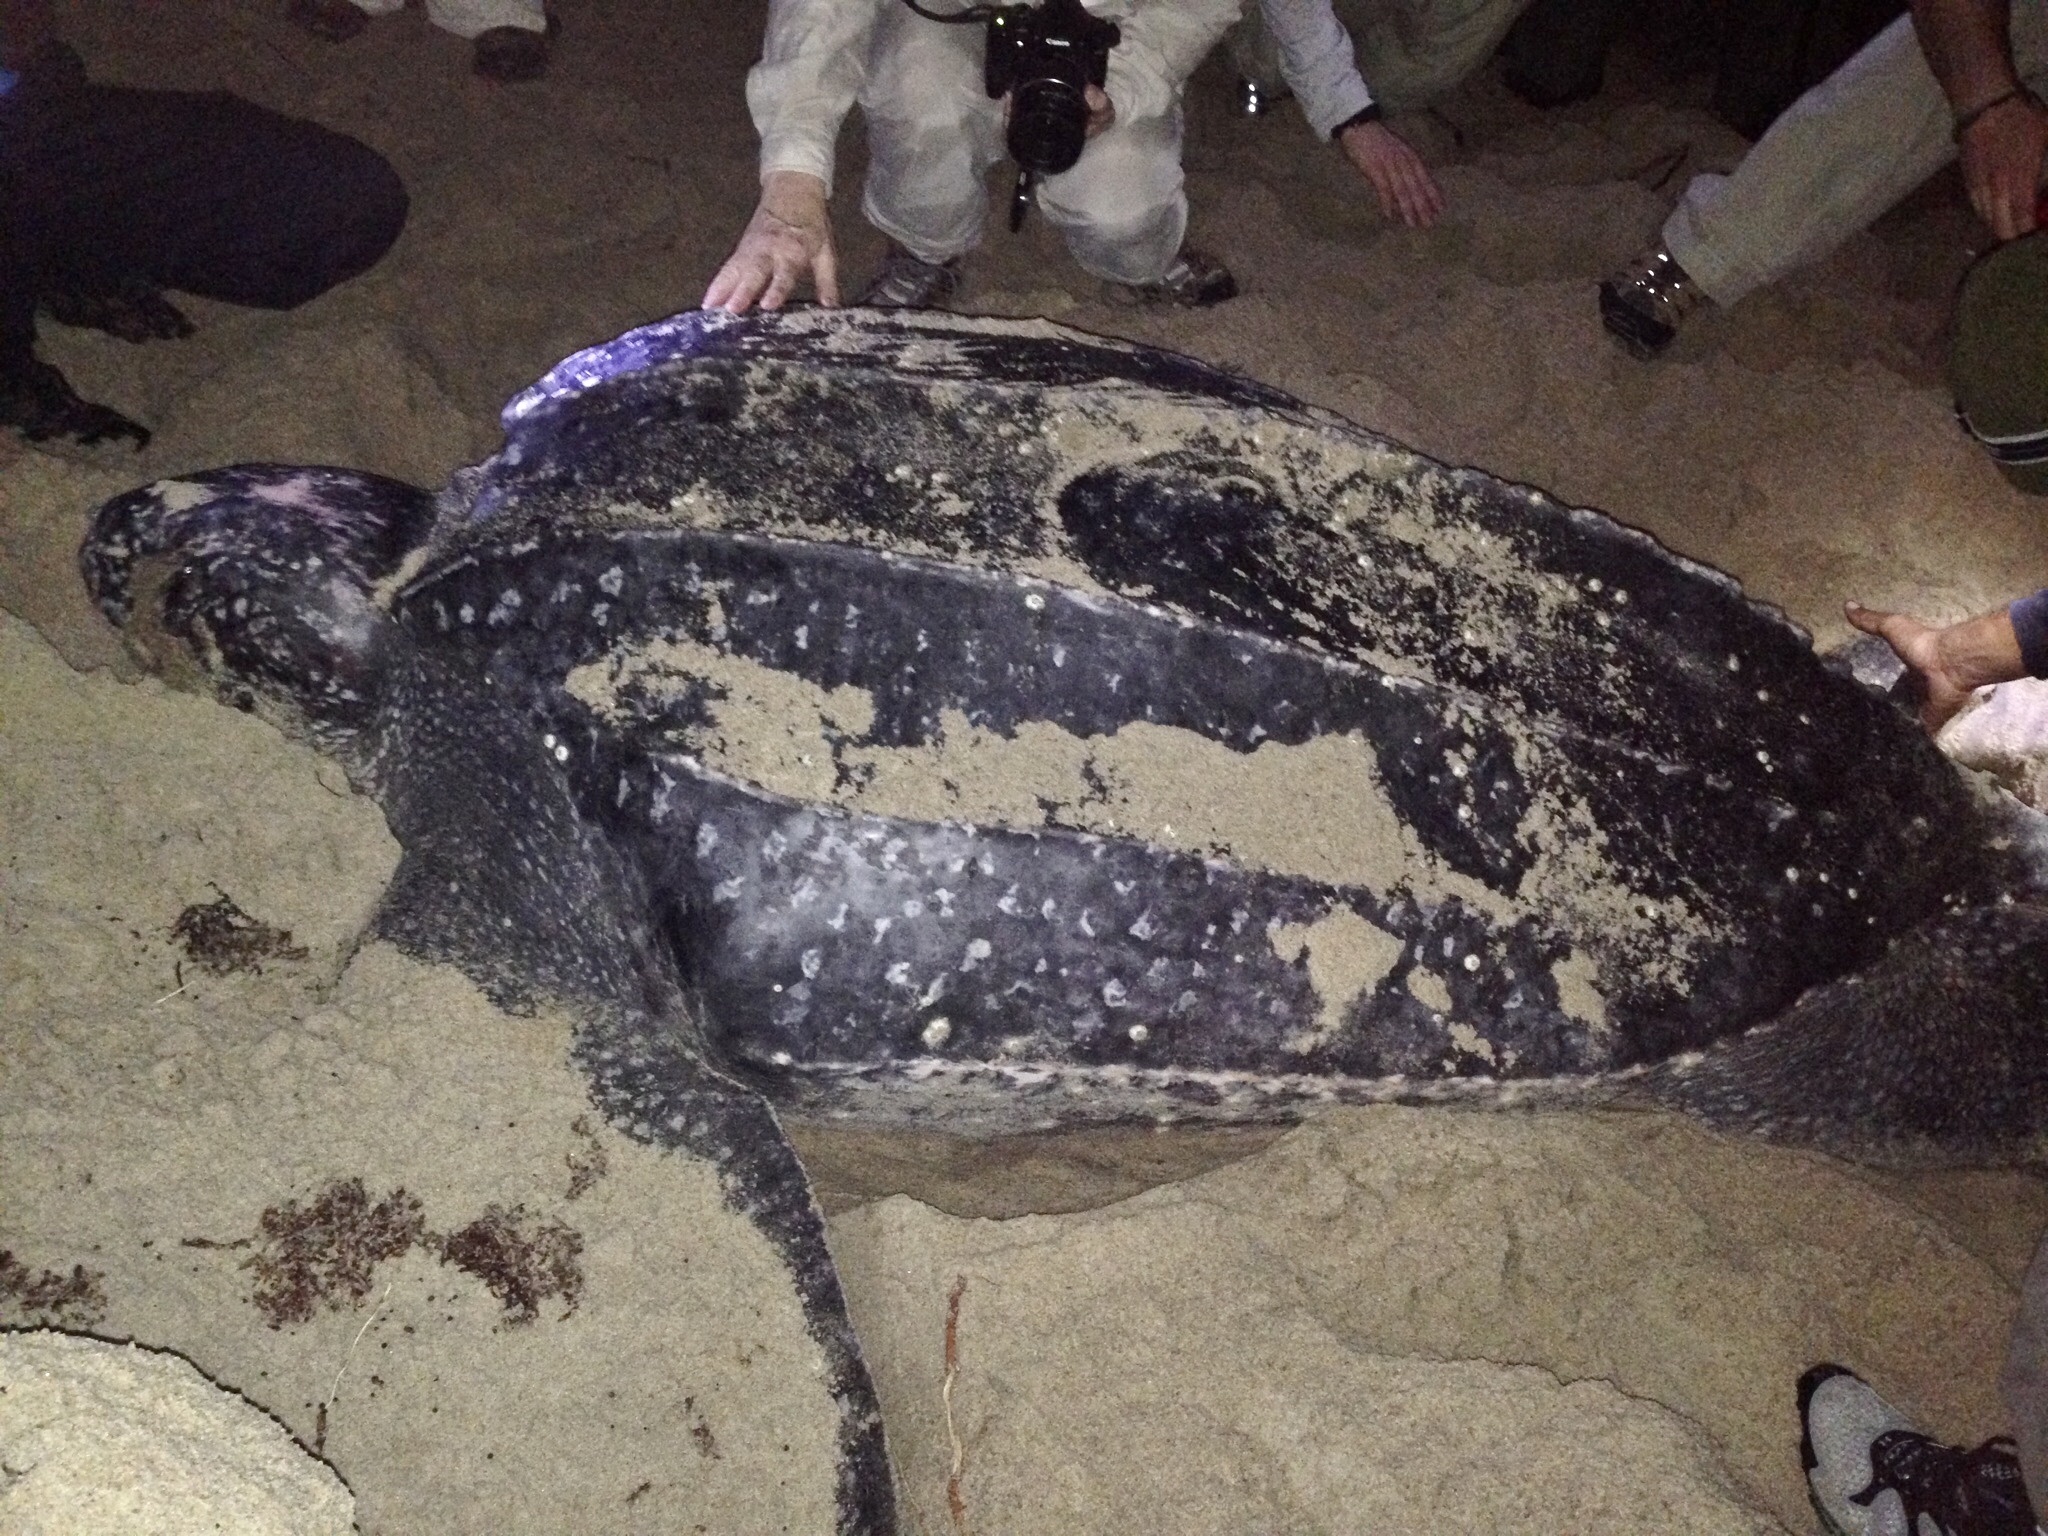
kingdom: Animalia
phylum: Chordata
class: Testudines
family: Dermochelyidae
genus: Dermochelys
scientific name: Dermochelys coriacea
